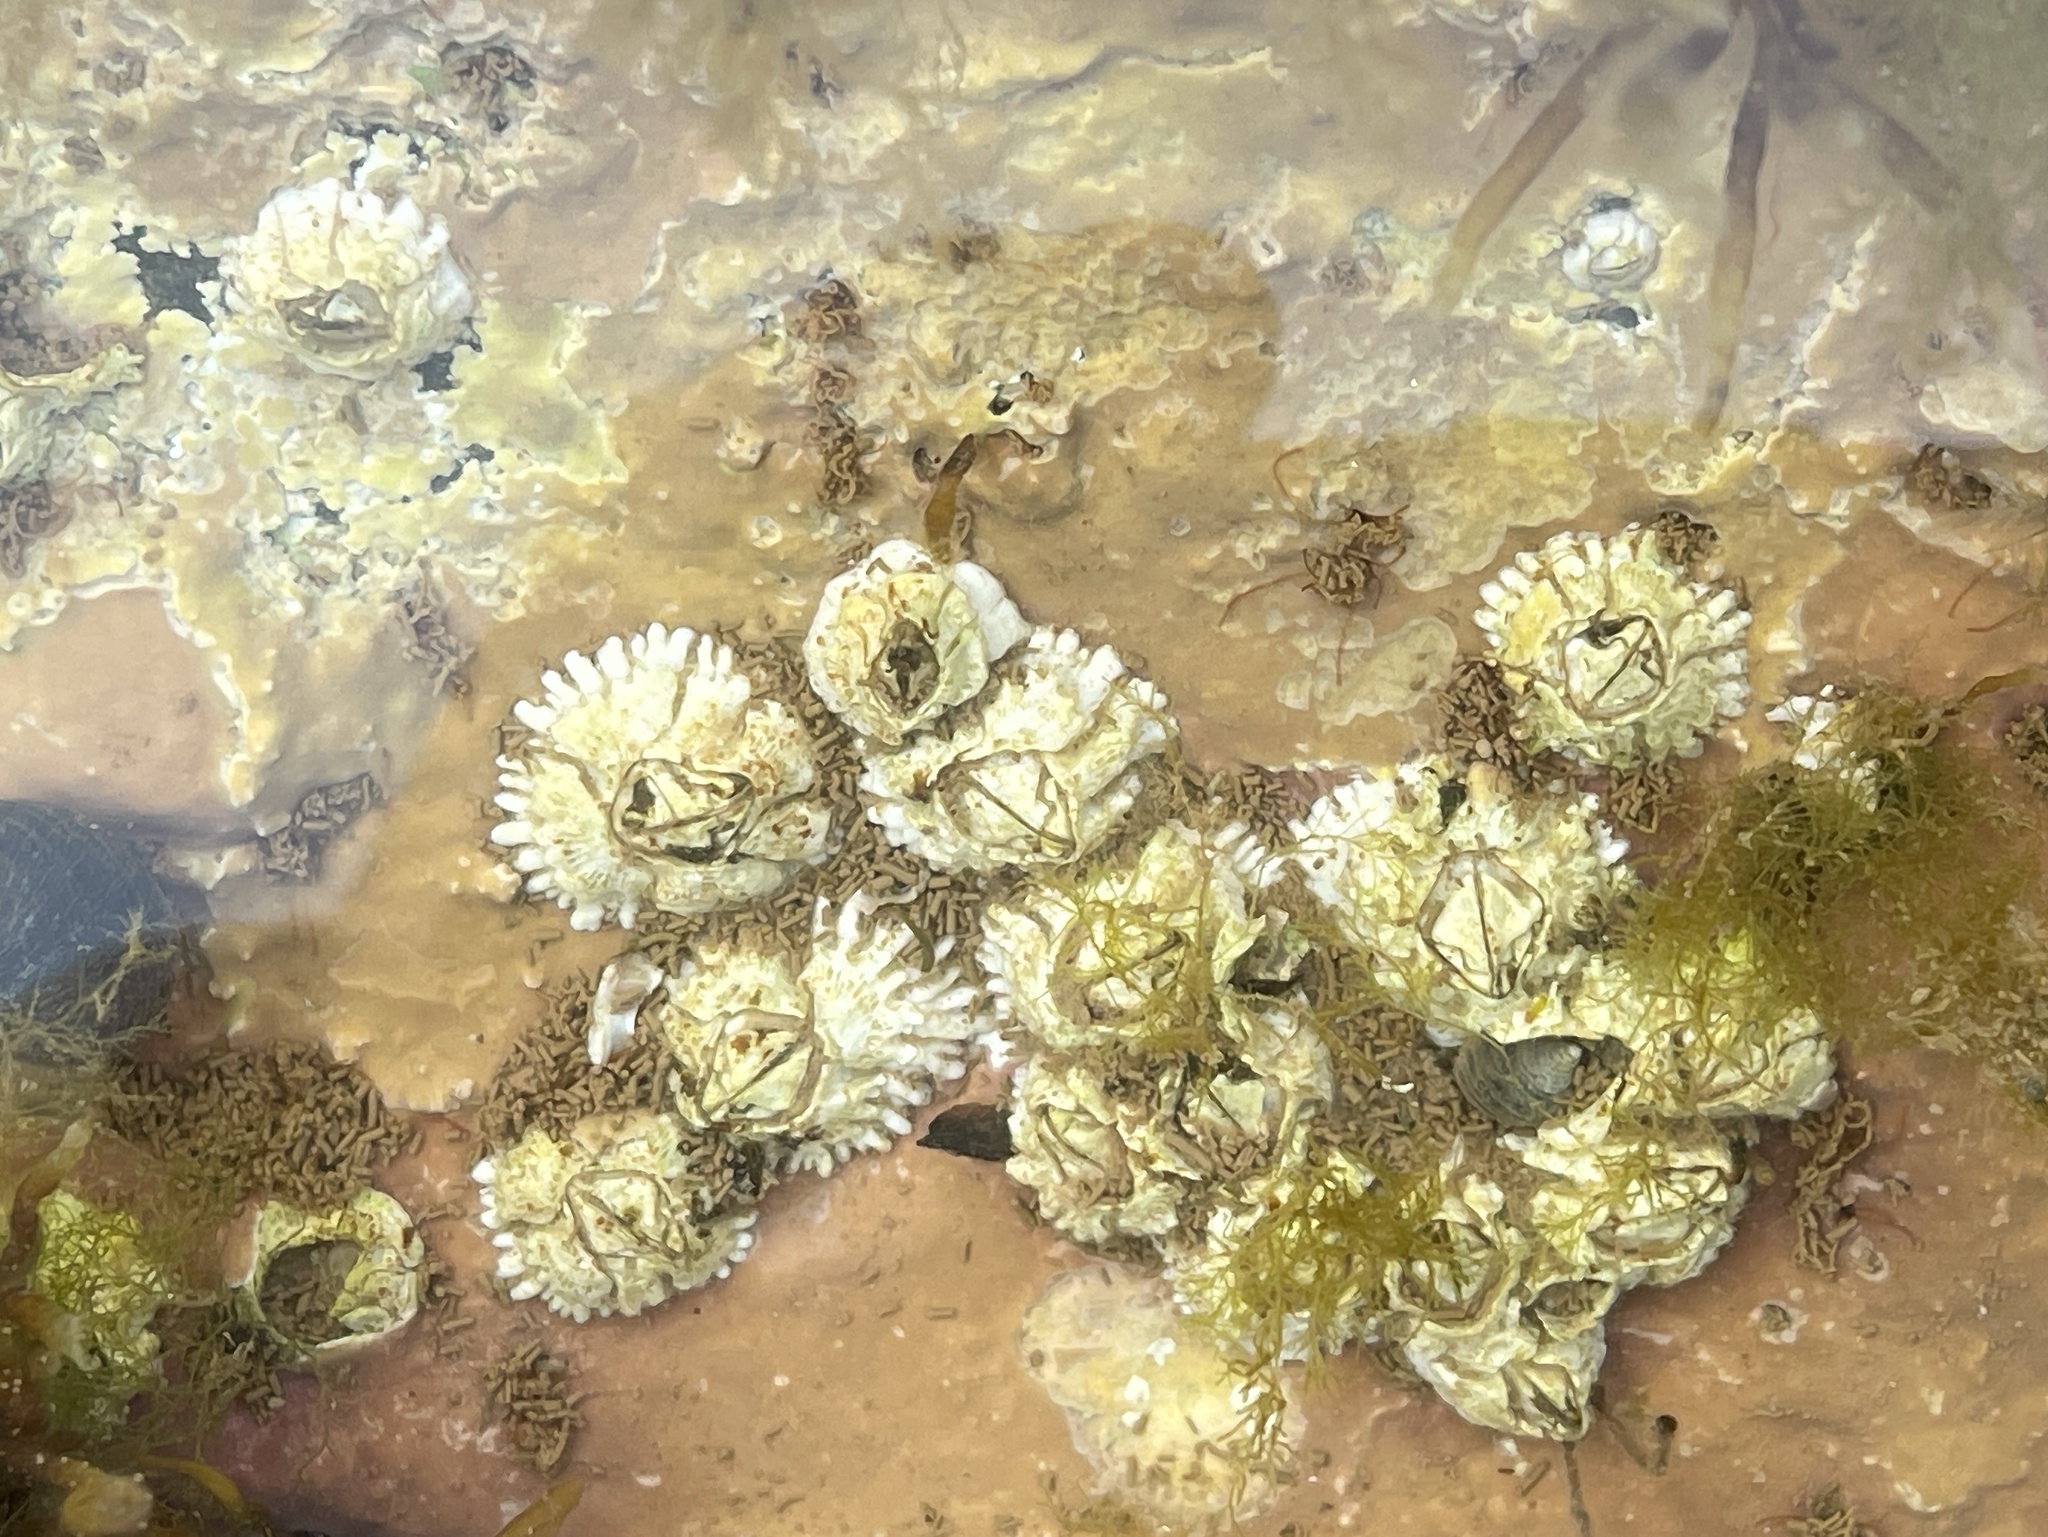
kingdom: Animalia
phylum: Arthropoda
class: Maxillopoda
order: Sessilia
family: Archaeobalanidae
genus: Semibalanus
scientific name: Semibalanus balanoides
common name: Acorn barnacle
